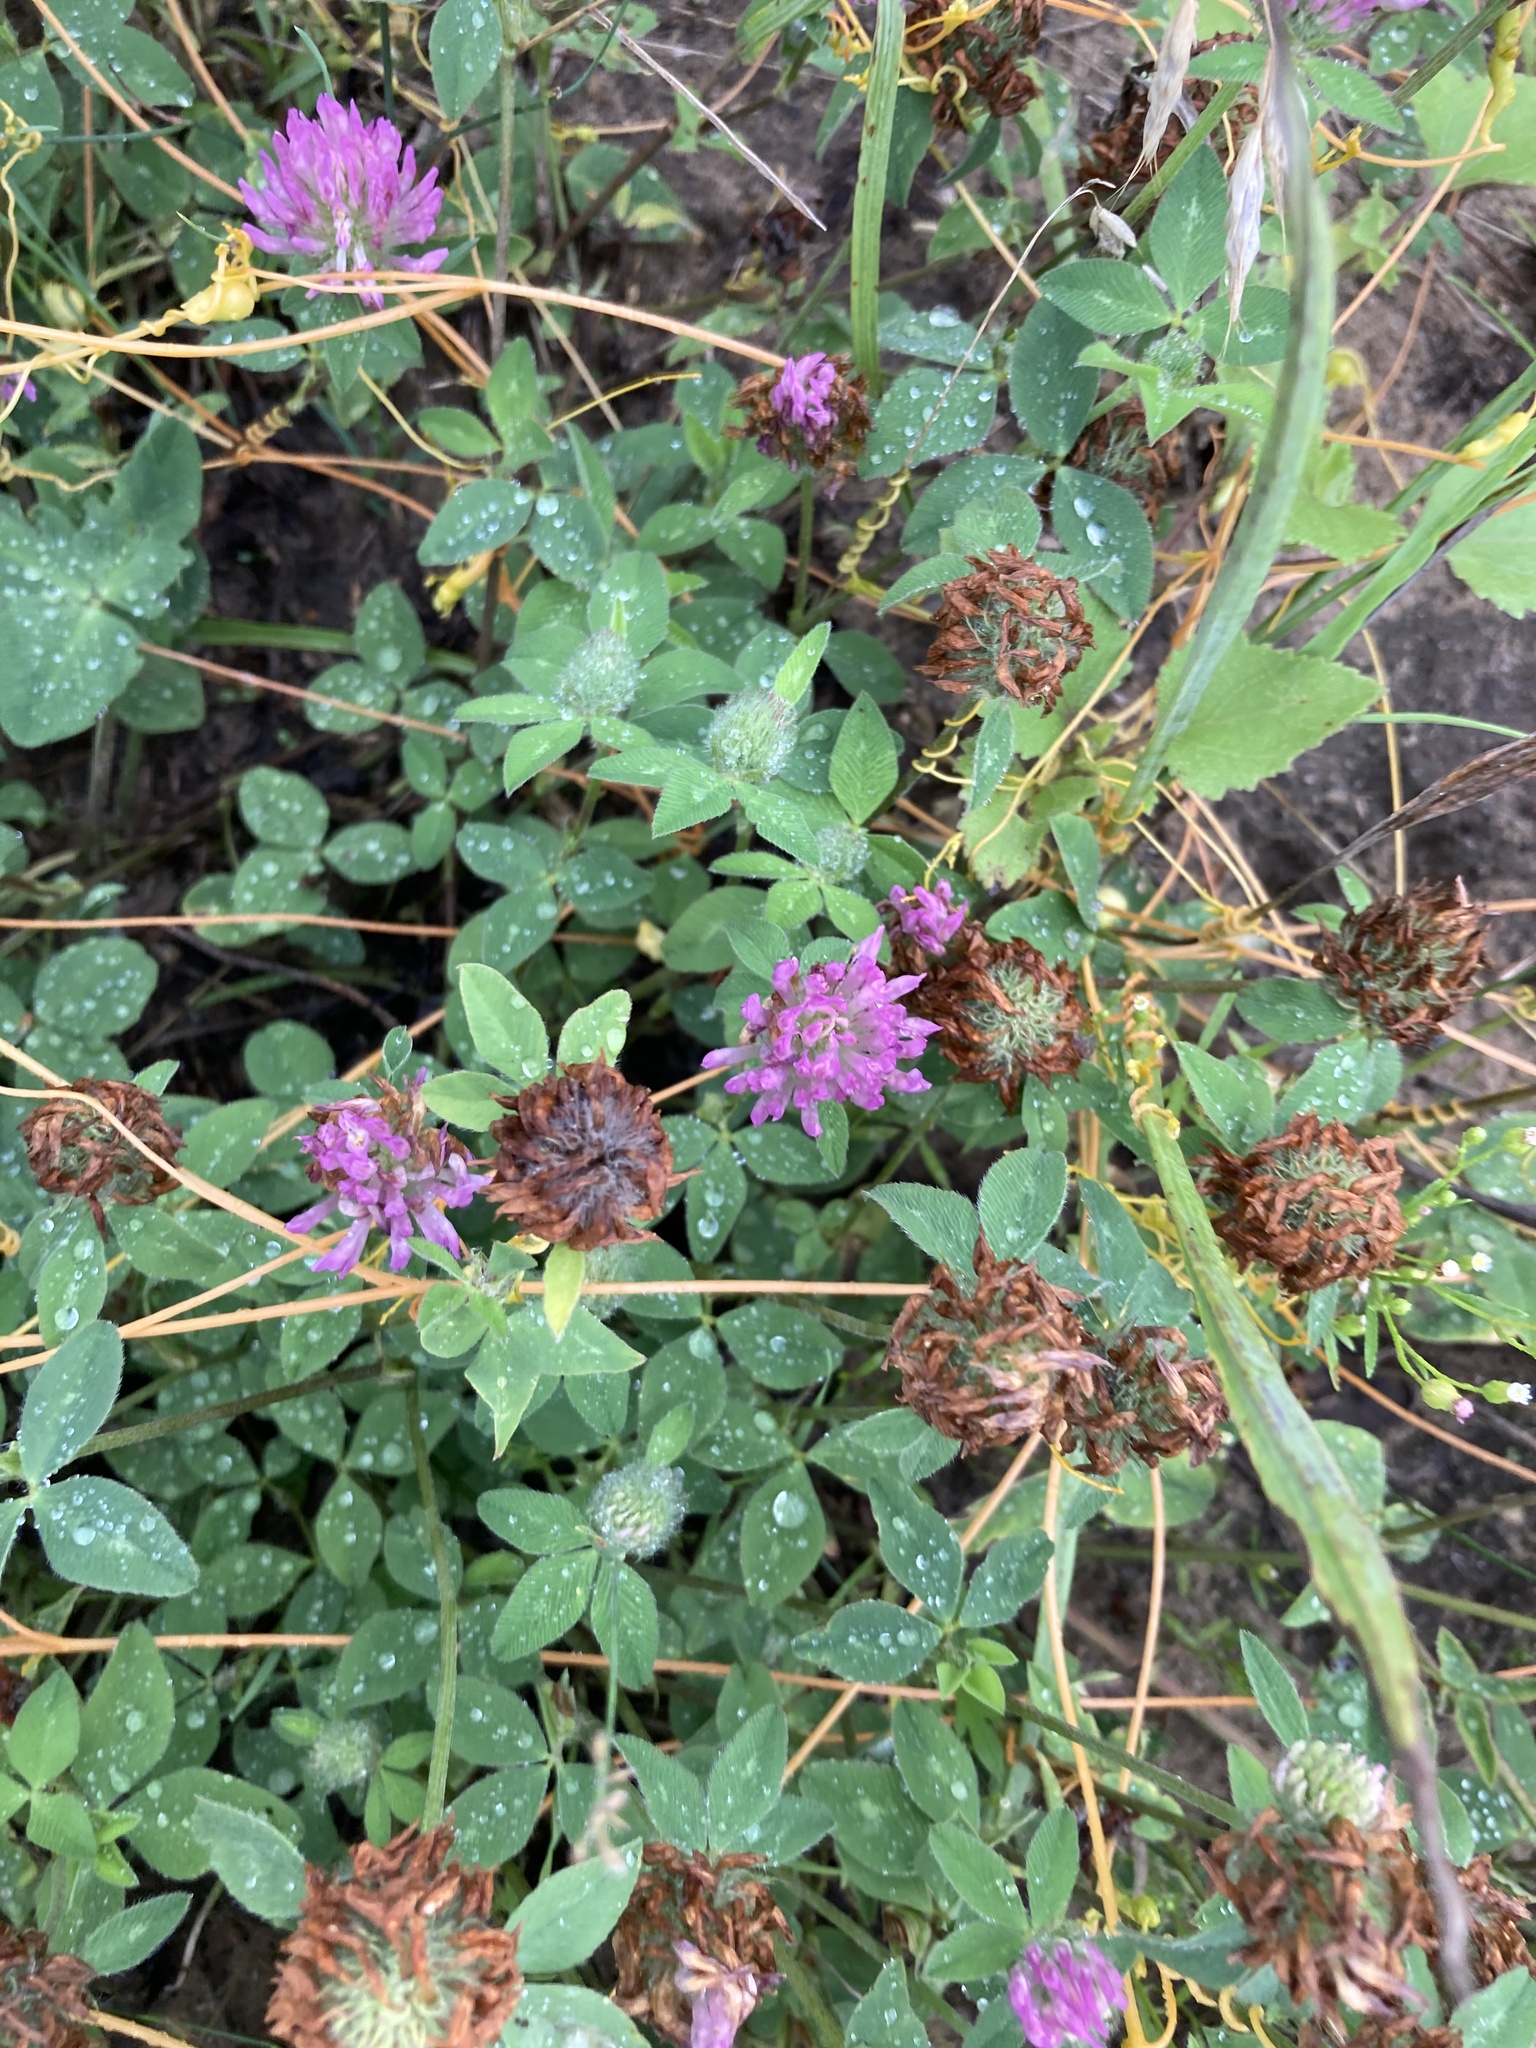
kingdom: Plantae
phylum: Tracheophyta
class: Magnoliopsida
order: Fabales
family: Fabaceae
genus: Trifolium
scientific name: Trifolium pratense
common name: Red clover
